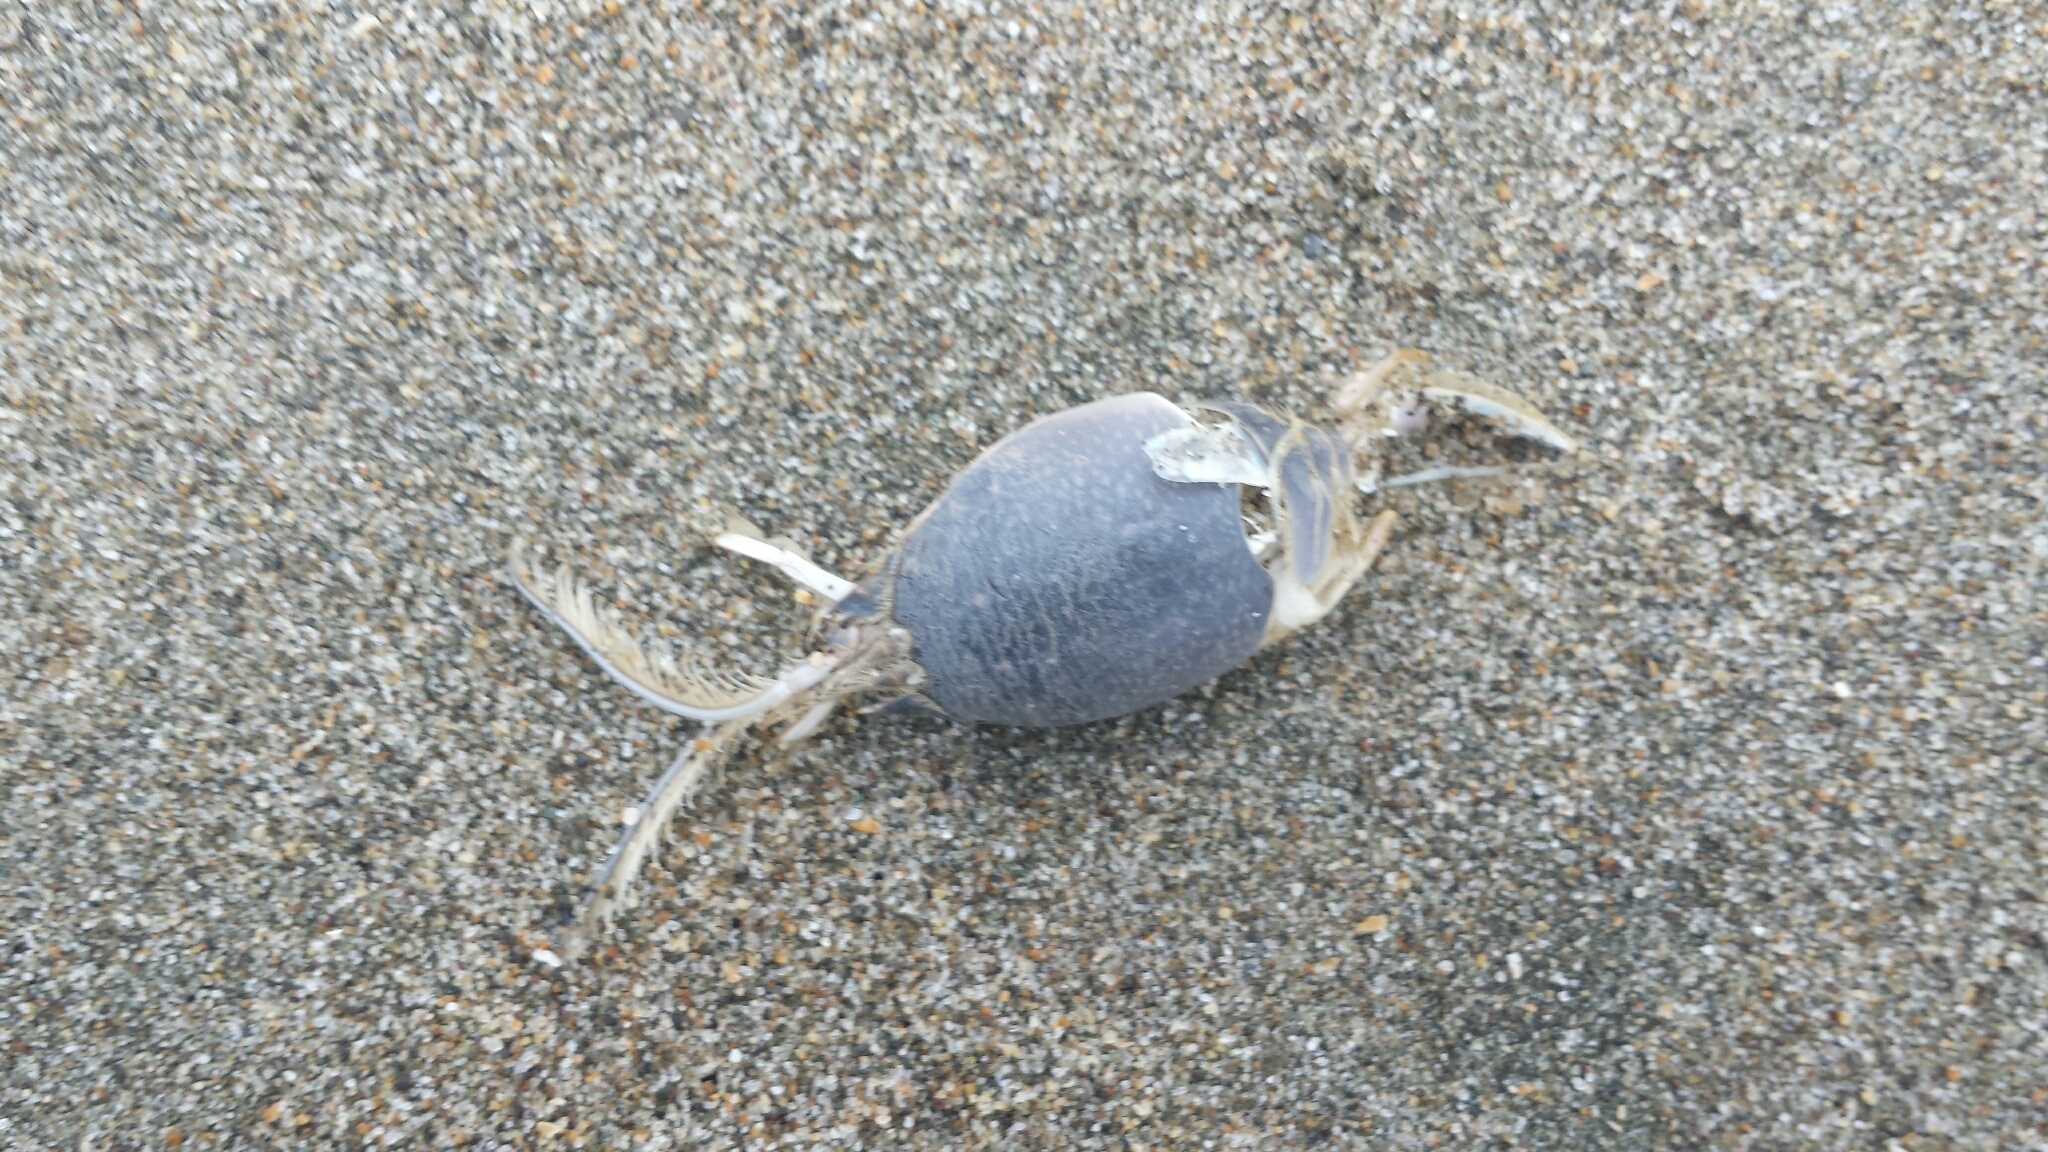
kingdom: Animalia
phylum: Arthropoda
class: Malacostraca
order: Decapoda
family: Hippidae
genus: Emerita
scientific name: Emerita analoga
